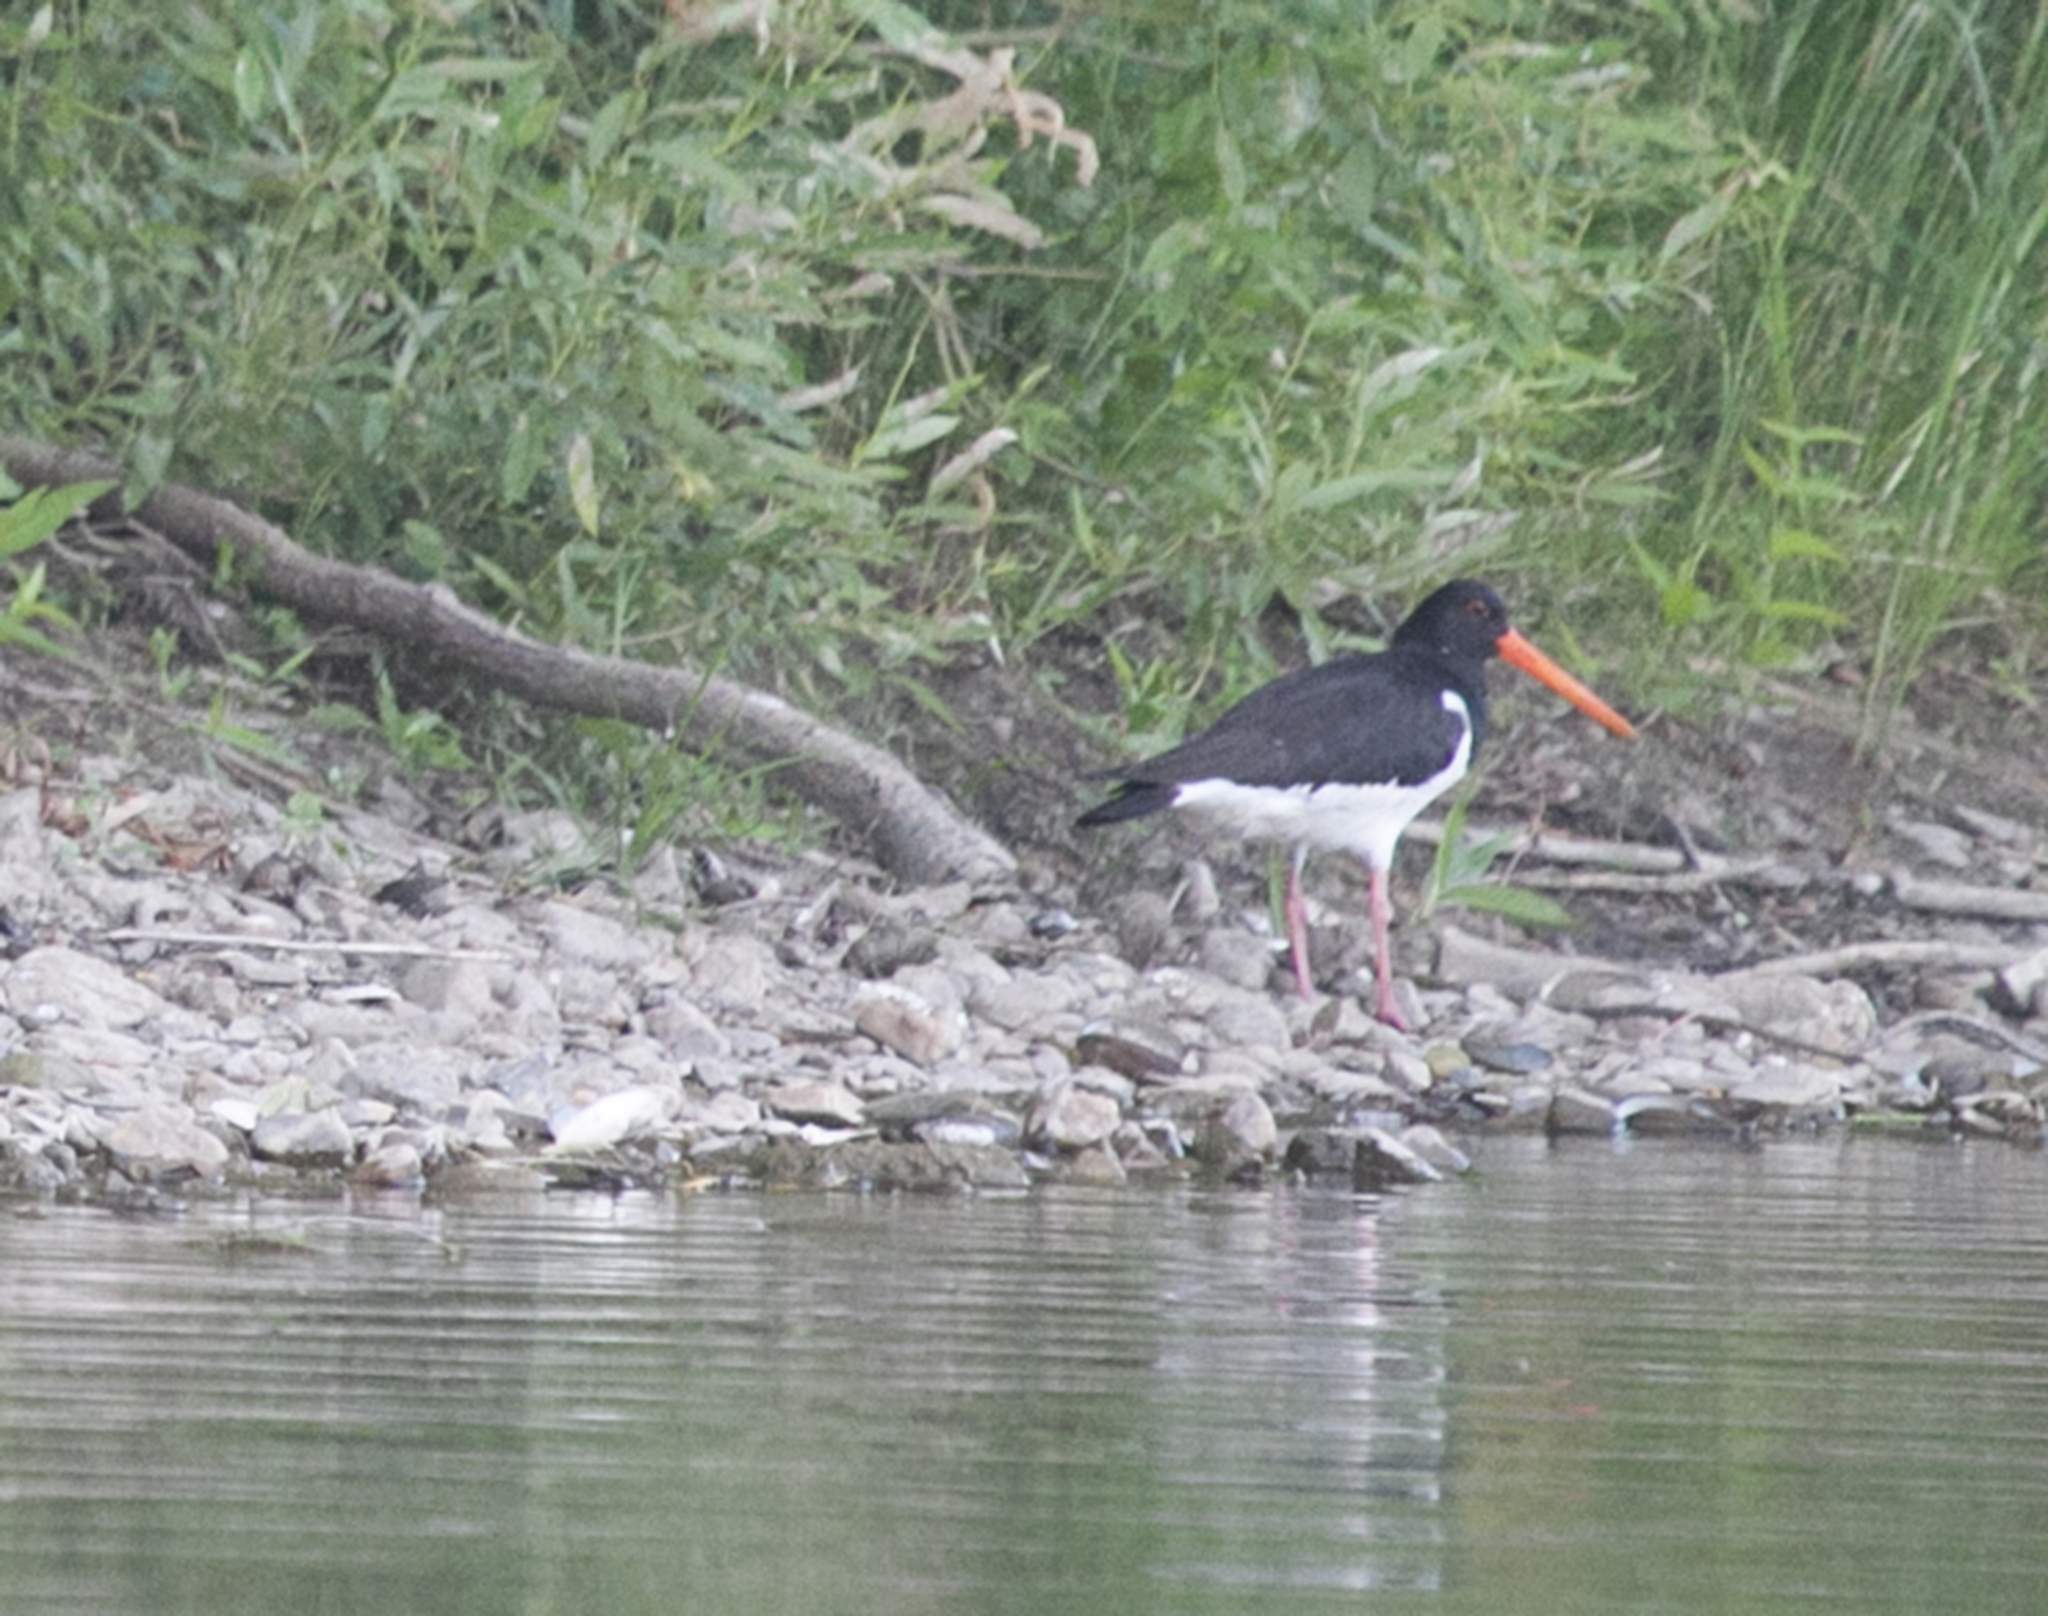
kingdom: Animalia
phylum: Chordata
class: Aves
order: Charadriiformes
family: Haematopodidae
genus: Haematopus
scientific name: Haematopus ostralegus
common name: Eurasian oystercatcher
